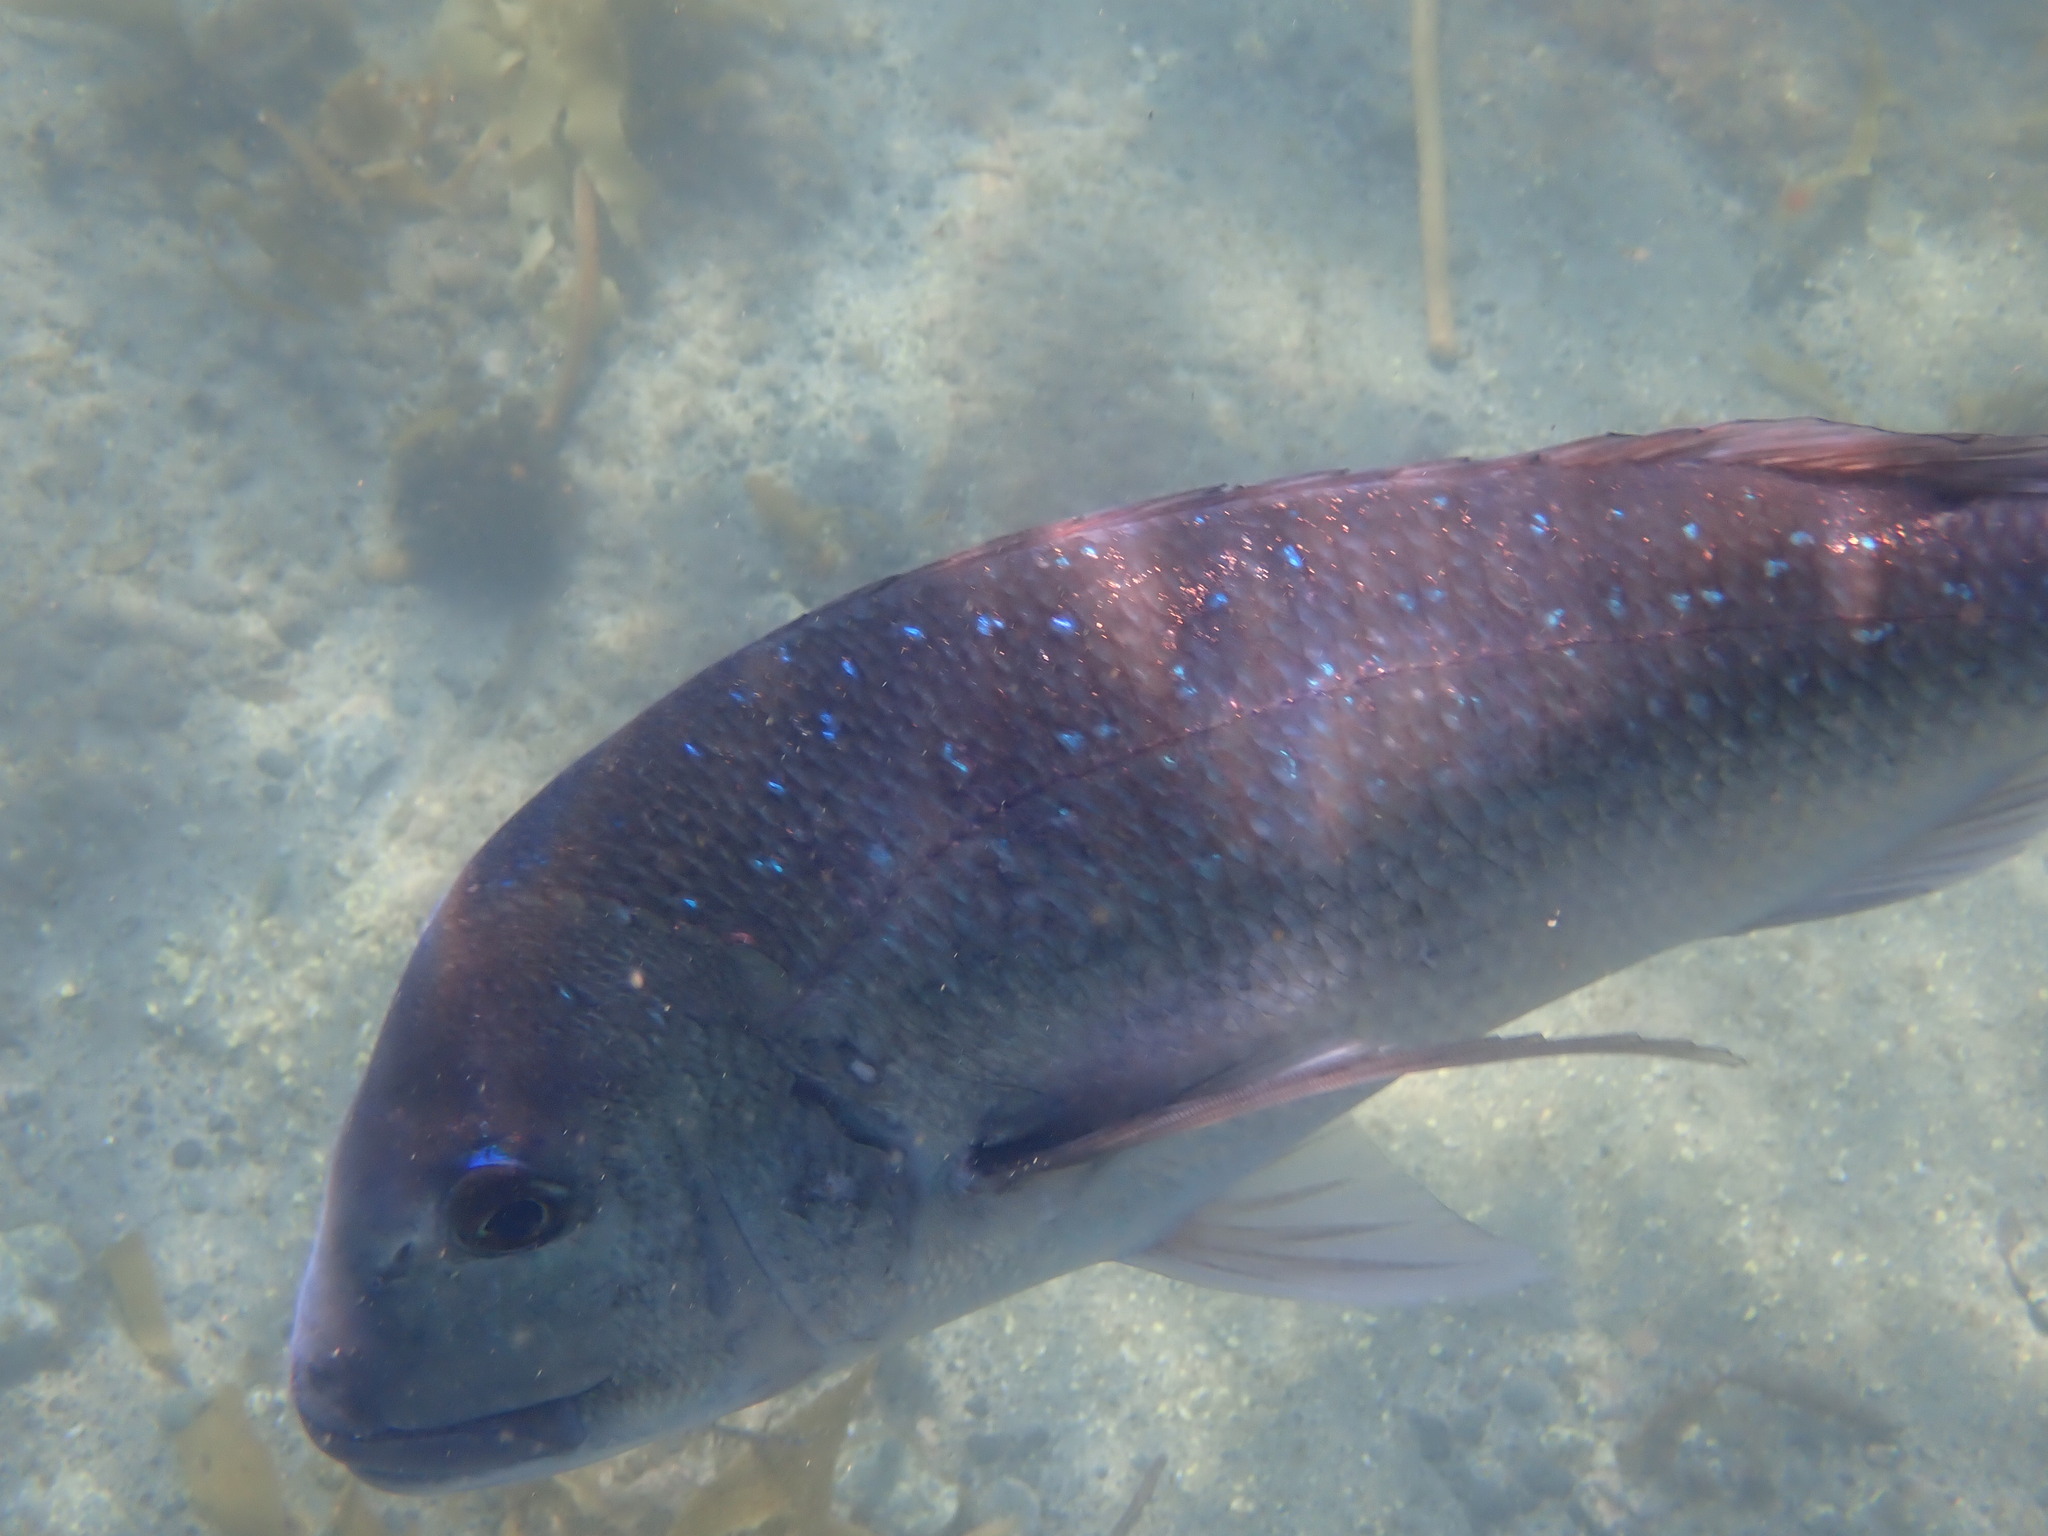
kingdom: Animalia
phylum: Chordata
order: Perciformes
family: Sparidae
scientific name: Sparidae
